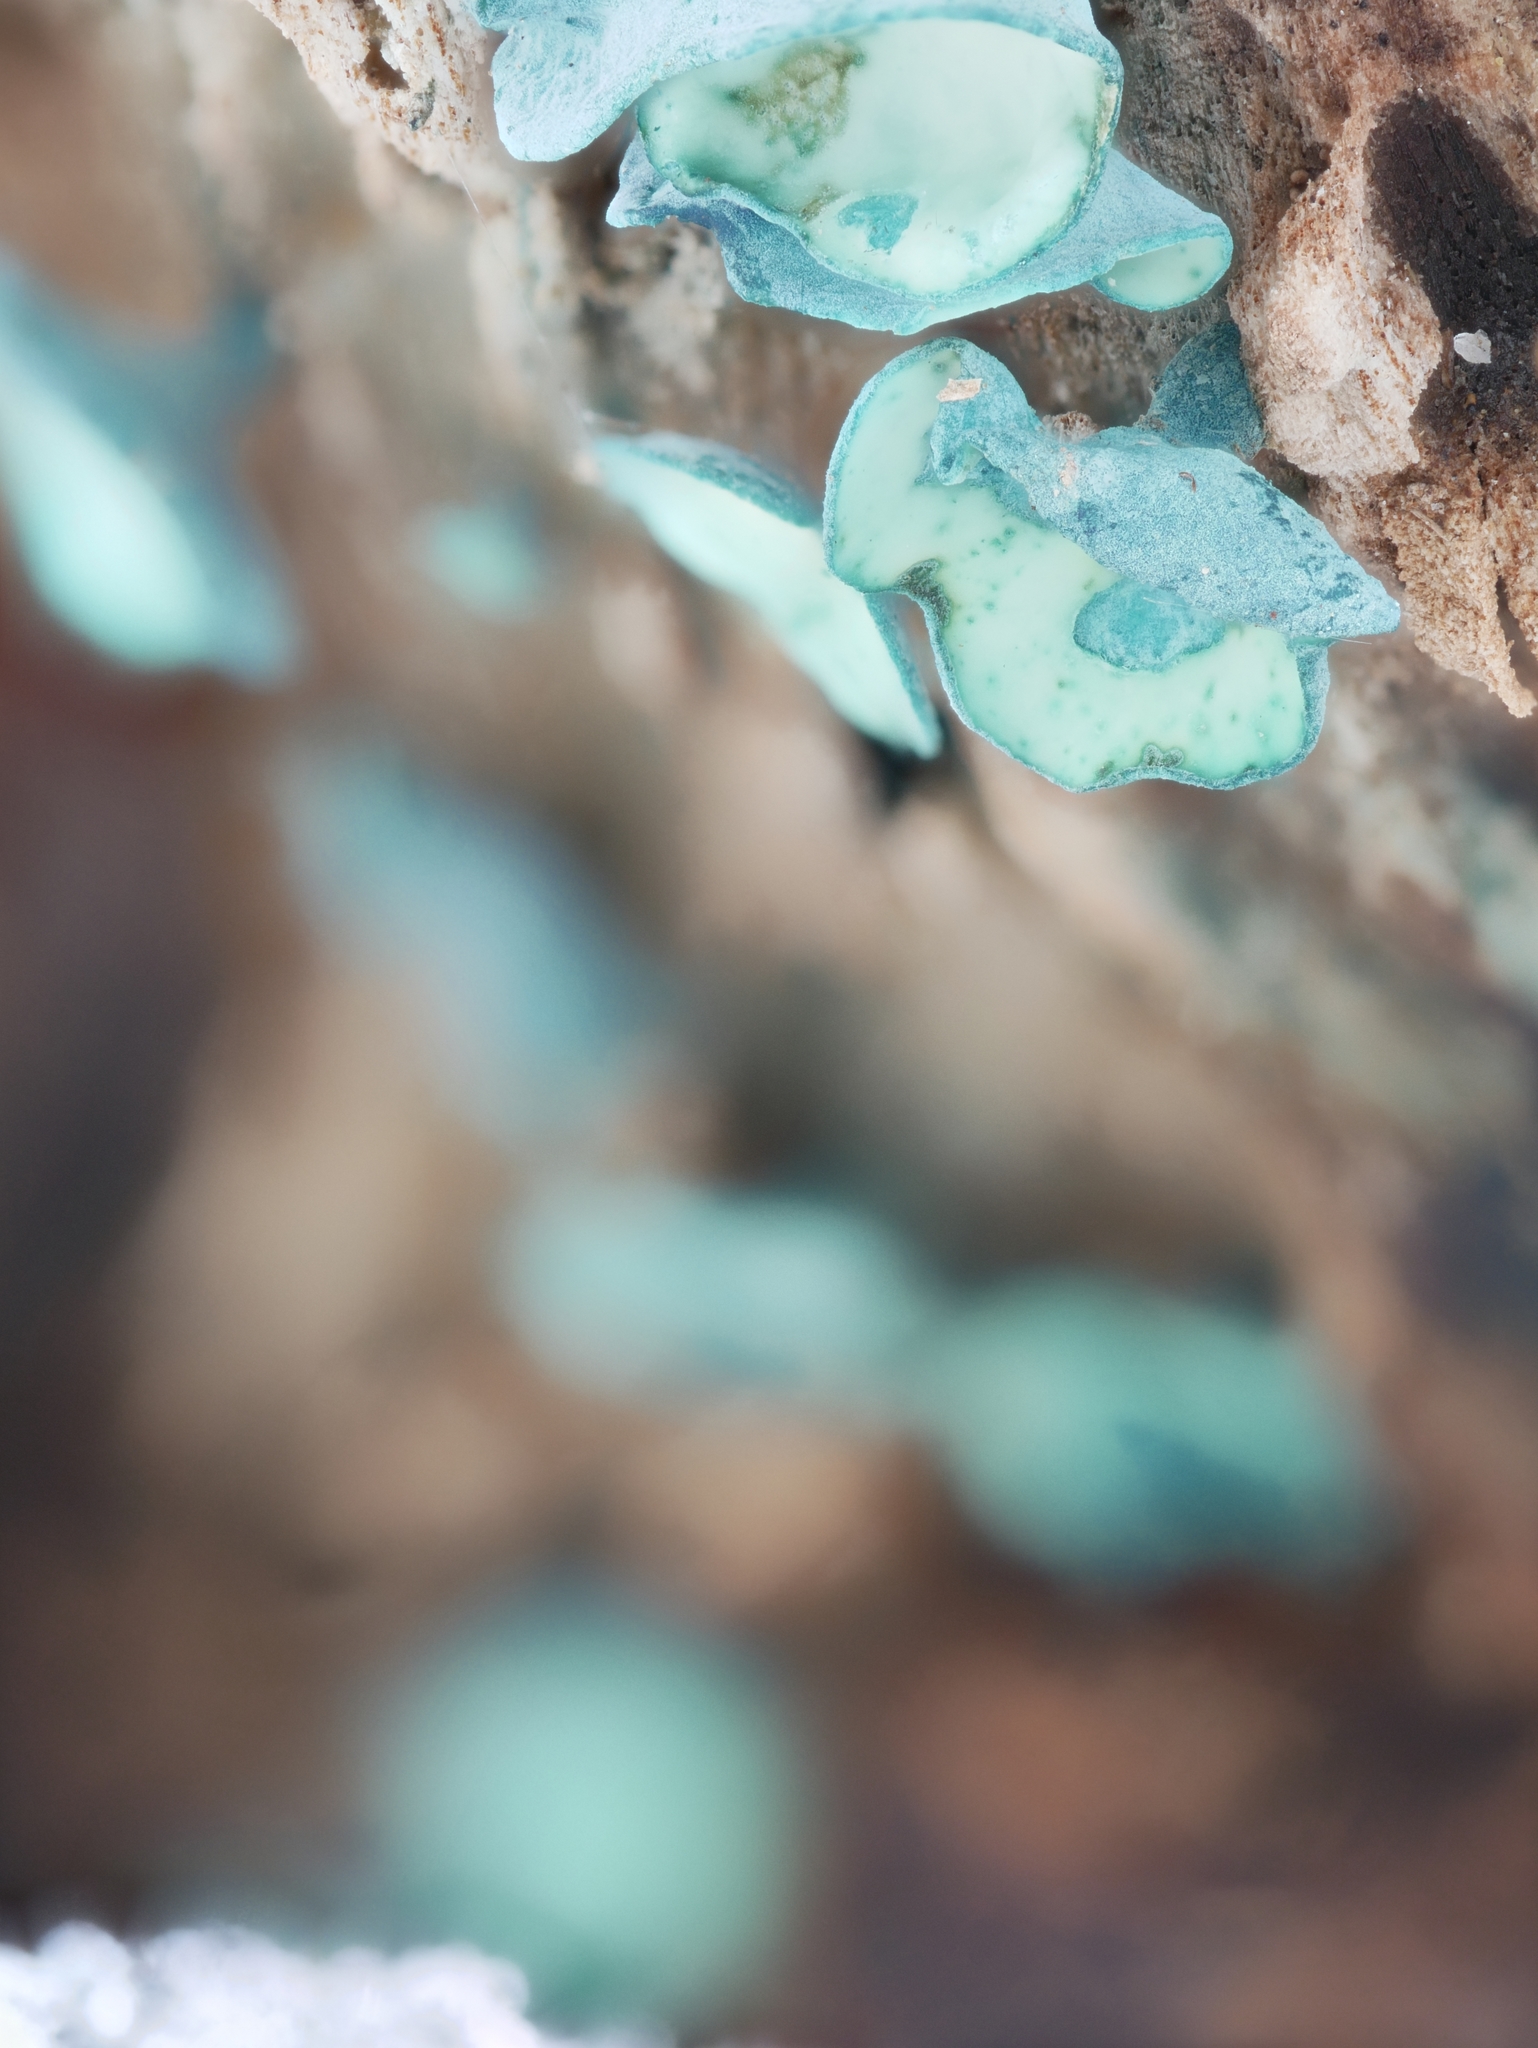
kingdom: Fungi
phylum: Ascomycota
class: Leotiomycetes
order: Helotiales
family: Chlorociboriaceae
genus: Chlorociboria
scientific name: Chlorociboria aeruginascens
